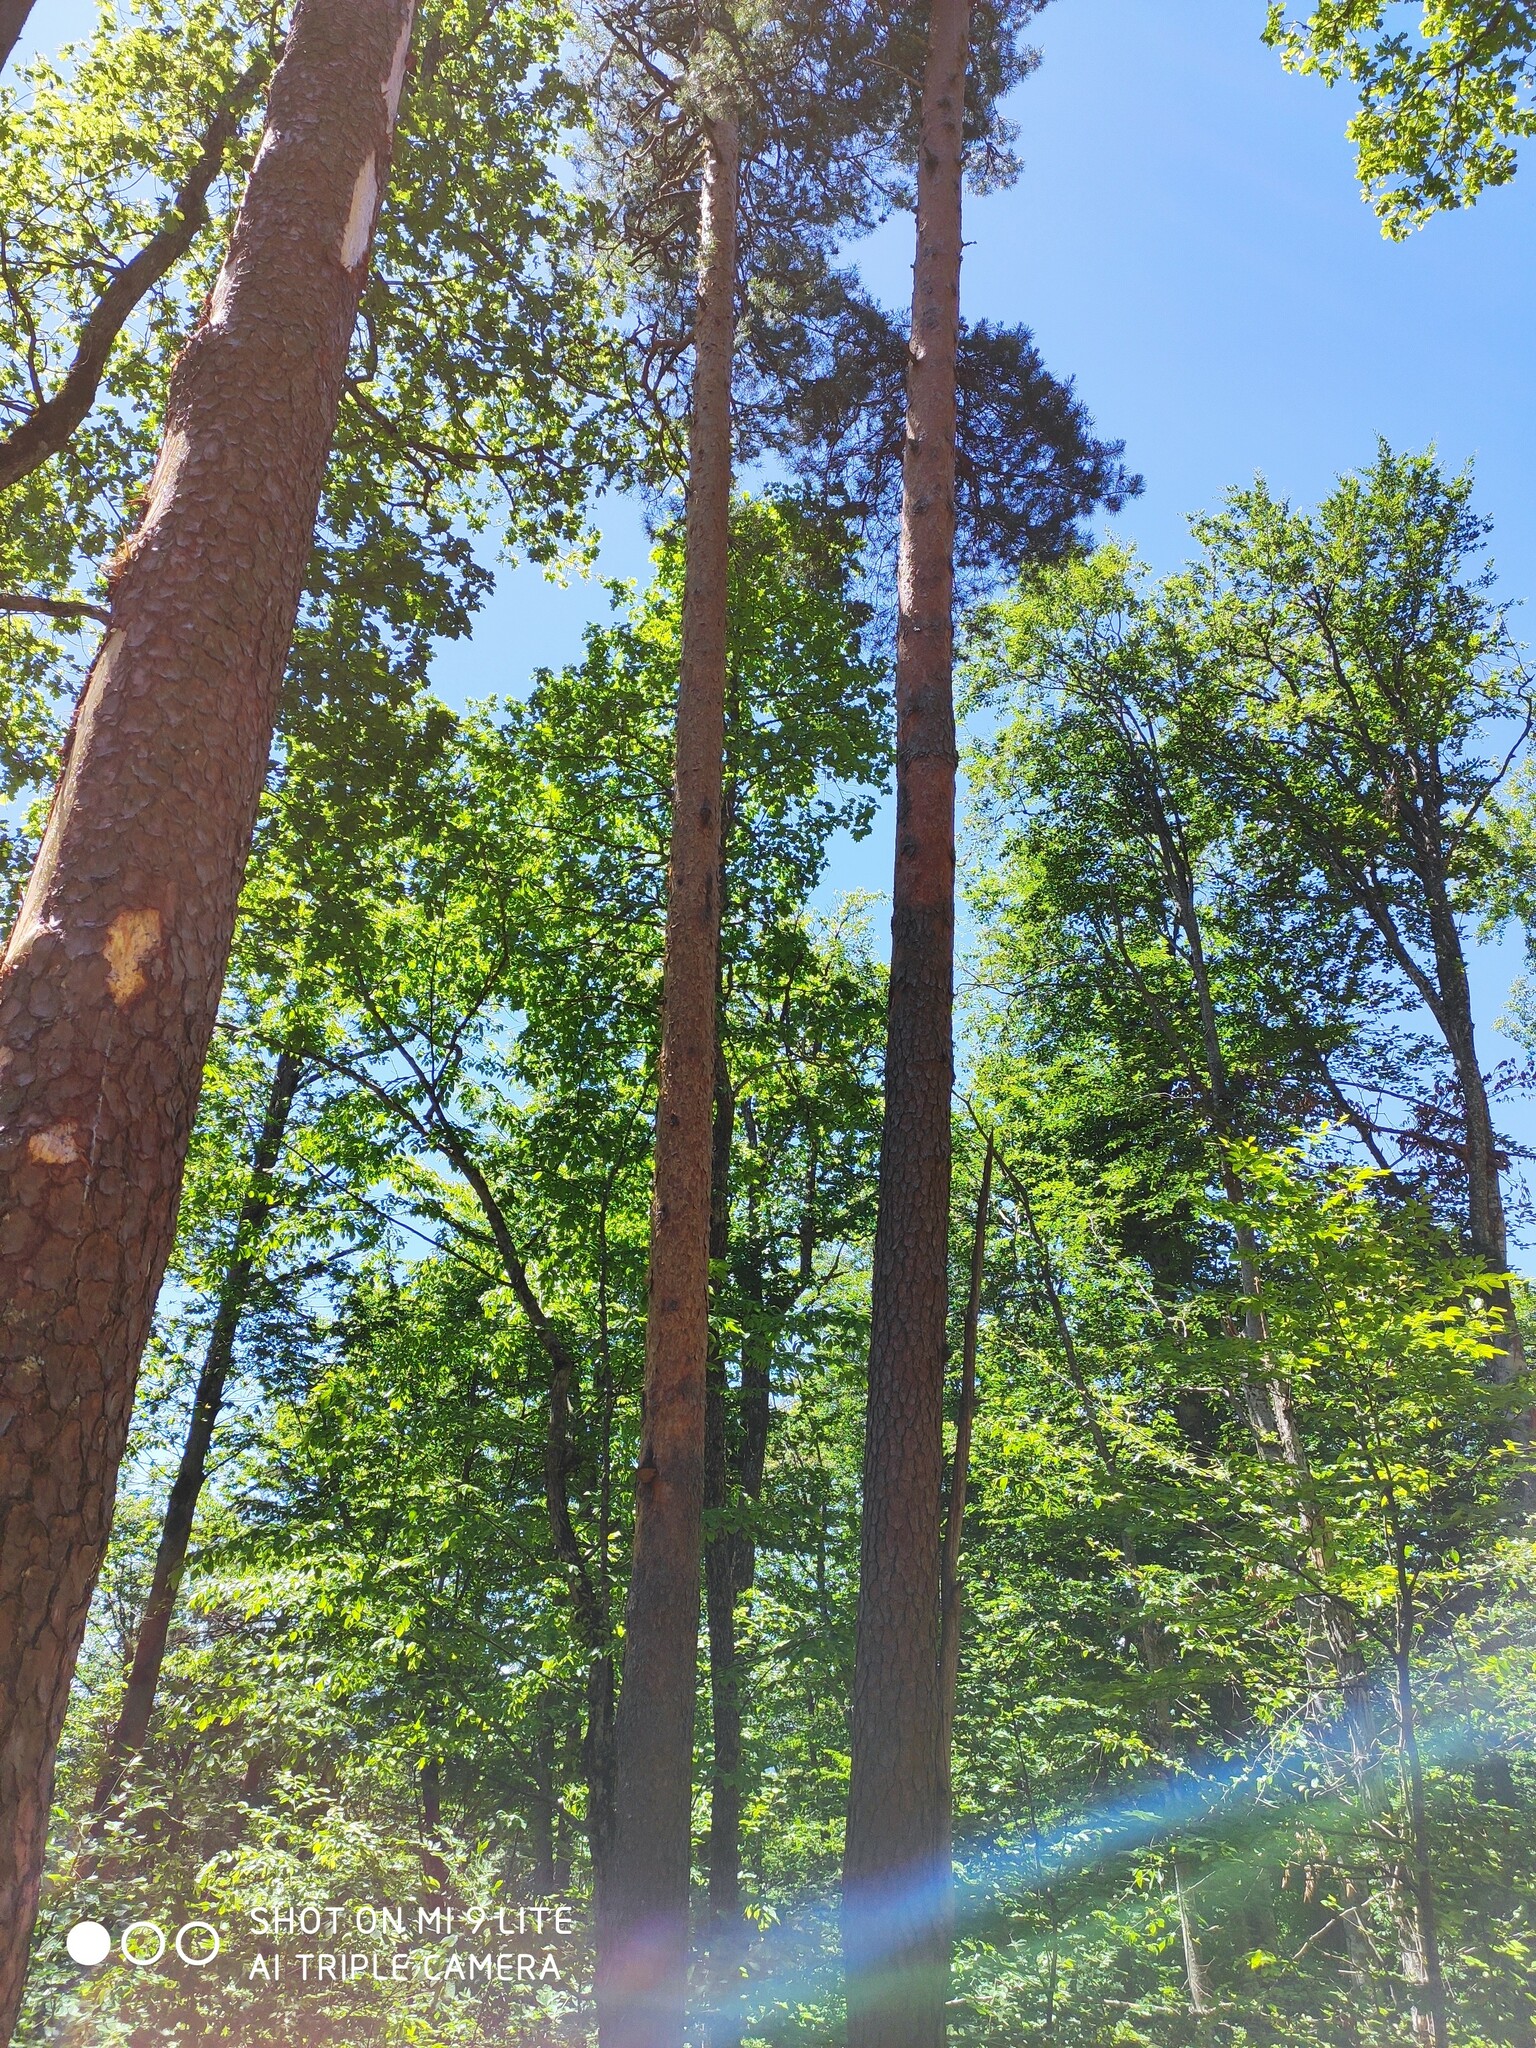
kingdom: Plantae
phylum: Tracheophyta
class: Pinopsida
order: Pinales
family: Pinaceae
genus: Pinus
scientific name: Pinus sylvestris
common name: Scots pine
